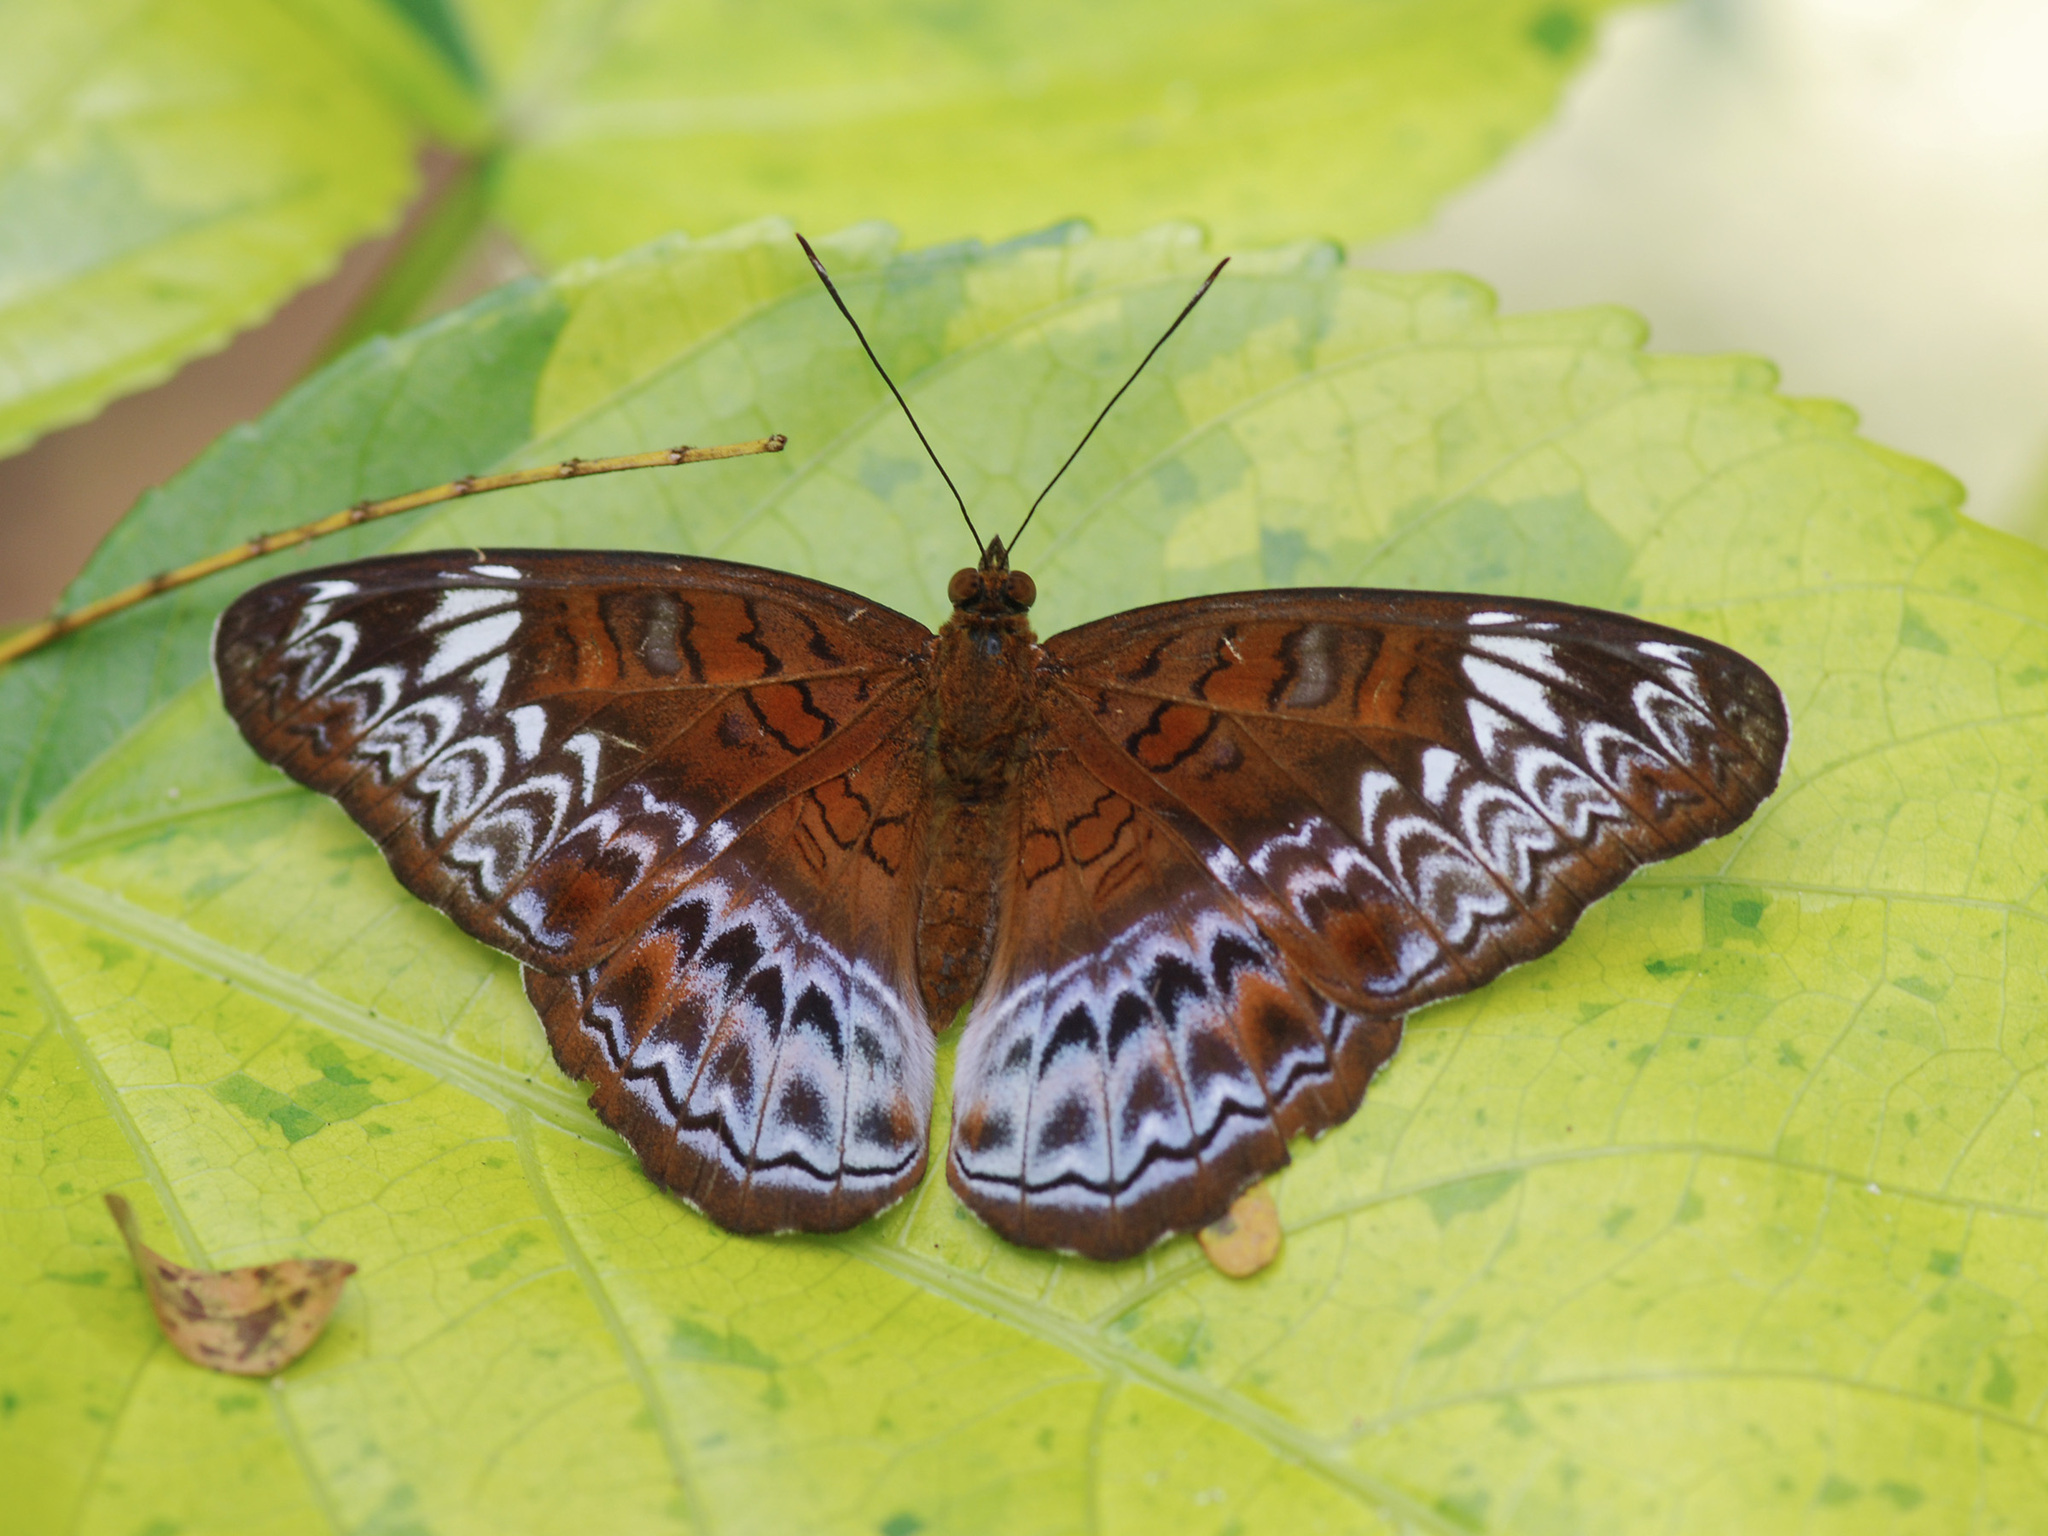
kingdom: Animalia
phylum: Arthropoda
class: Insecta
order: Lepidoptera
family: Nymphalidae
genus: Lebadea
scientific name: Lebadea martha
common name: Knight
